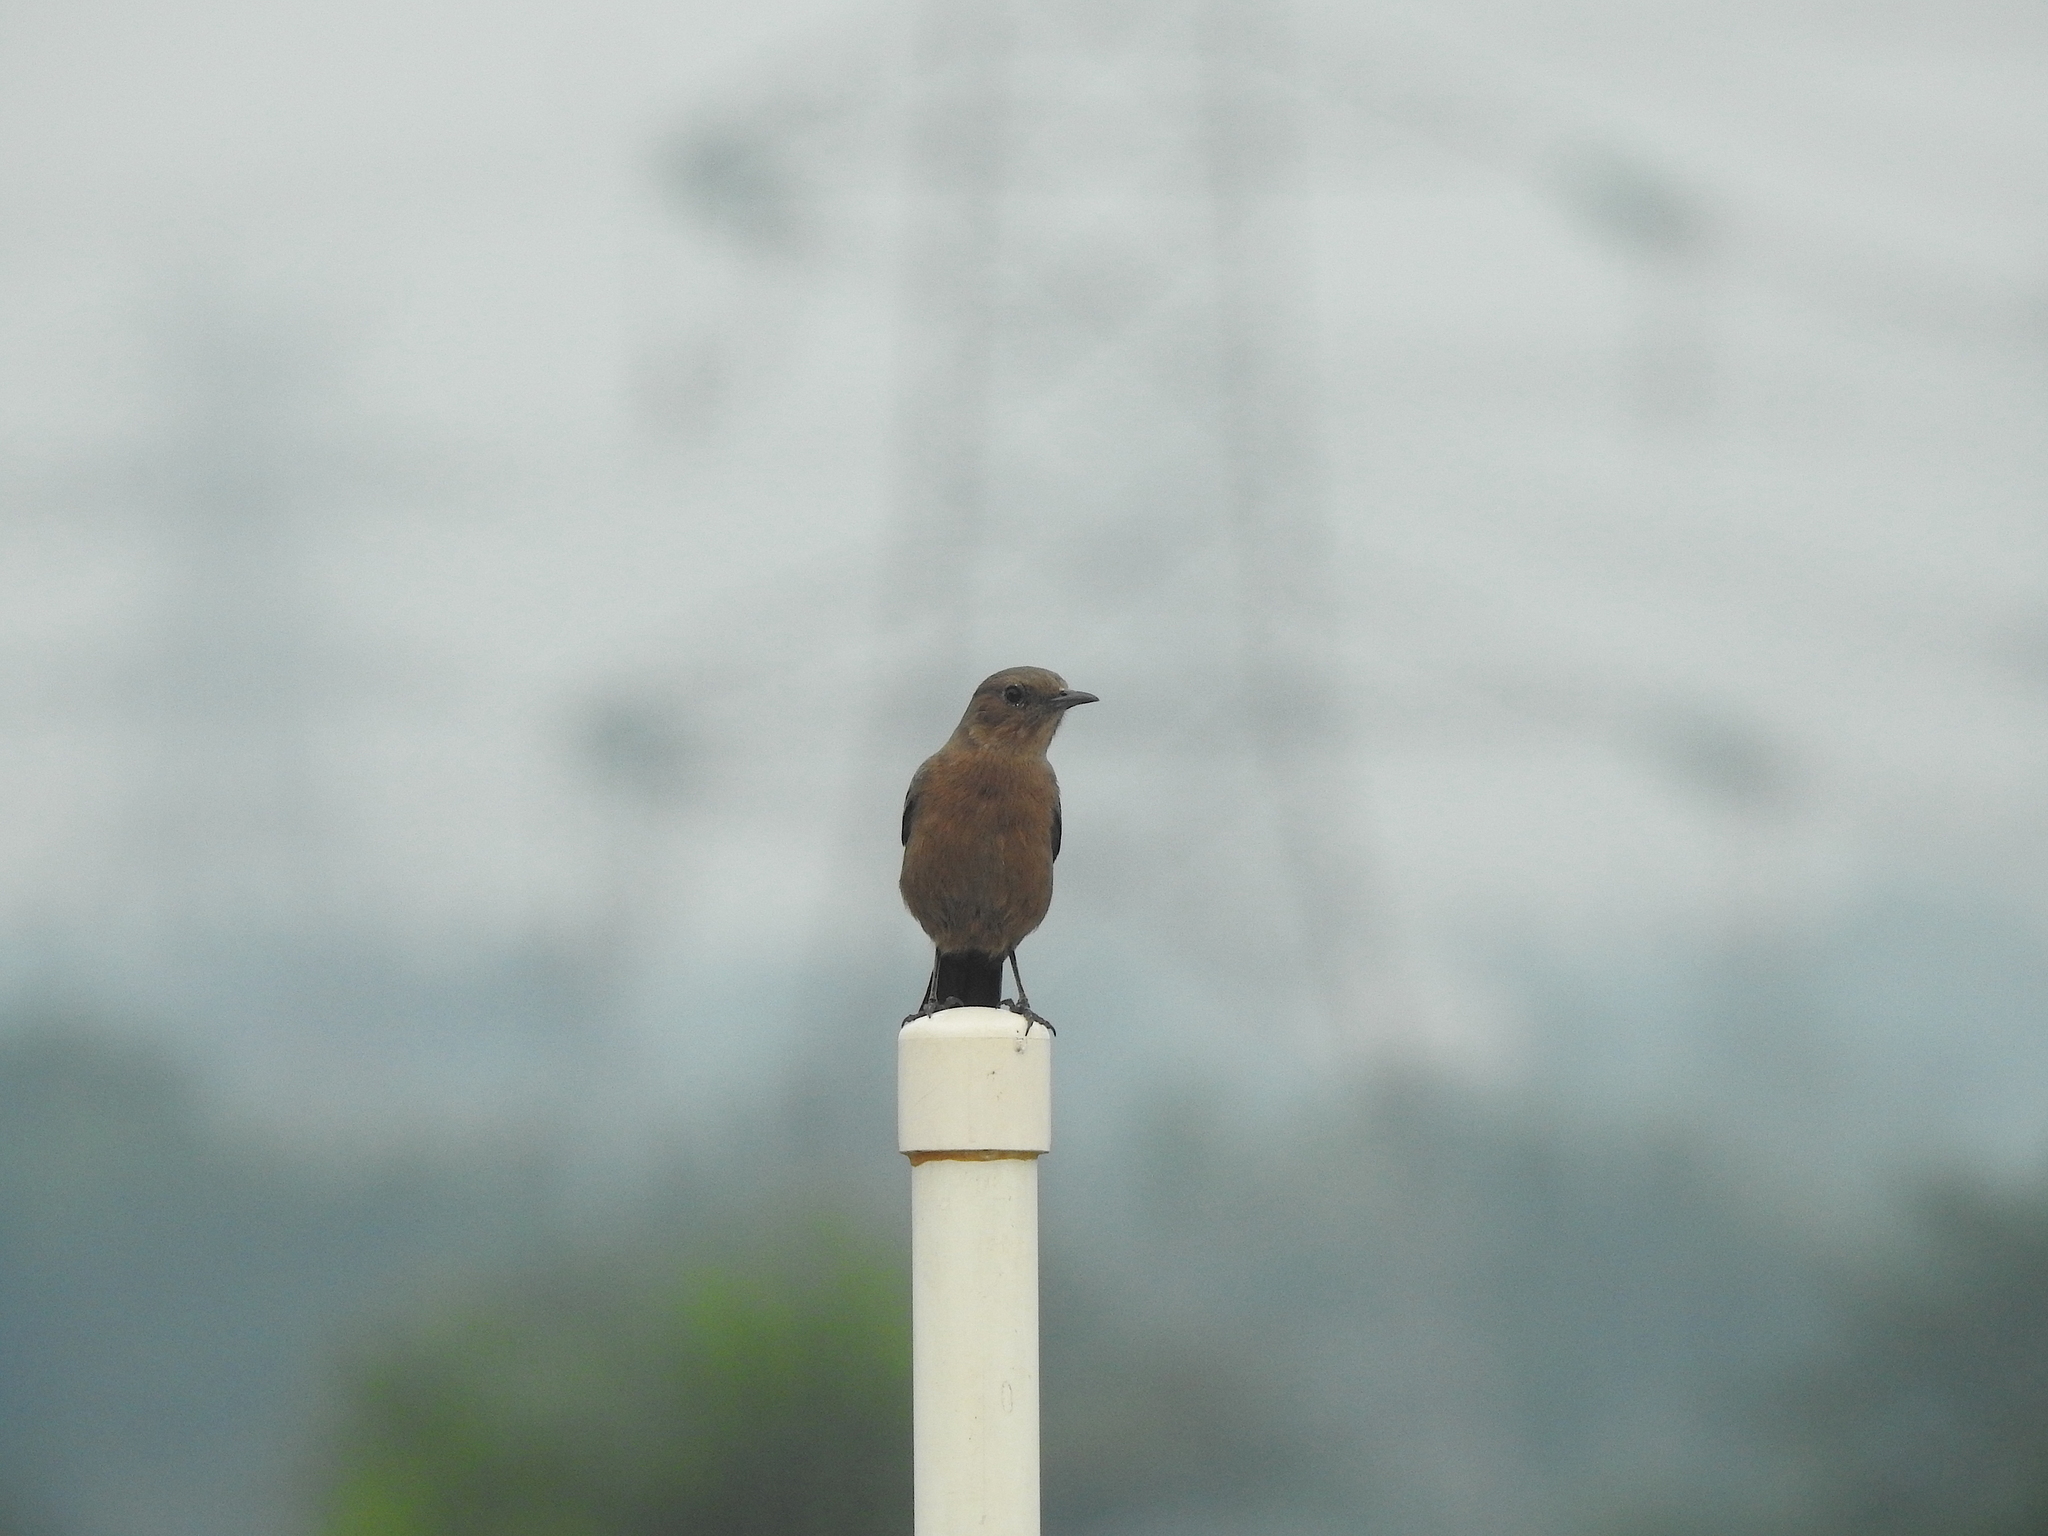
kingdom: Animalia
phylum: Chordata
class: Aves
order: Passeriformes
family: Muscicapidae
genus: Oenanthe
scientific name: Oenanthe fusca
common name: Brown rock chat
